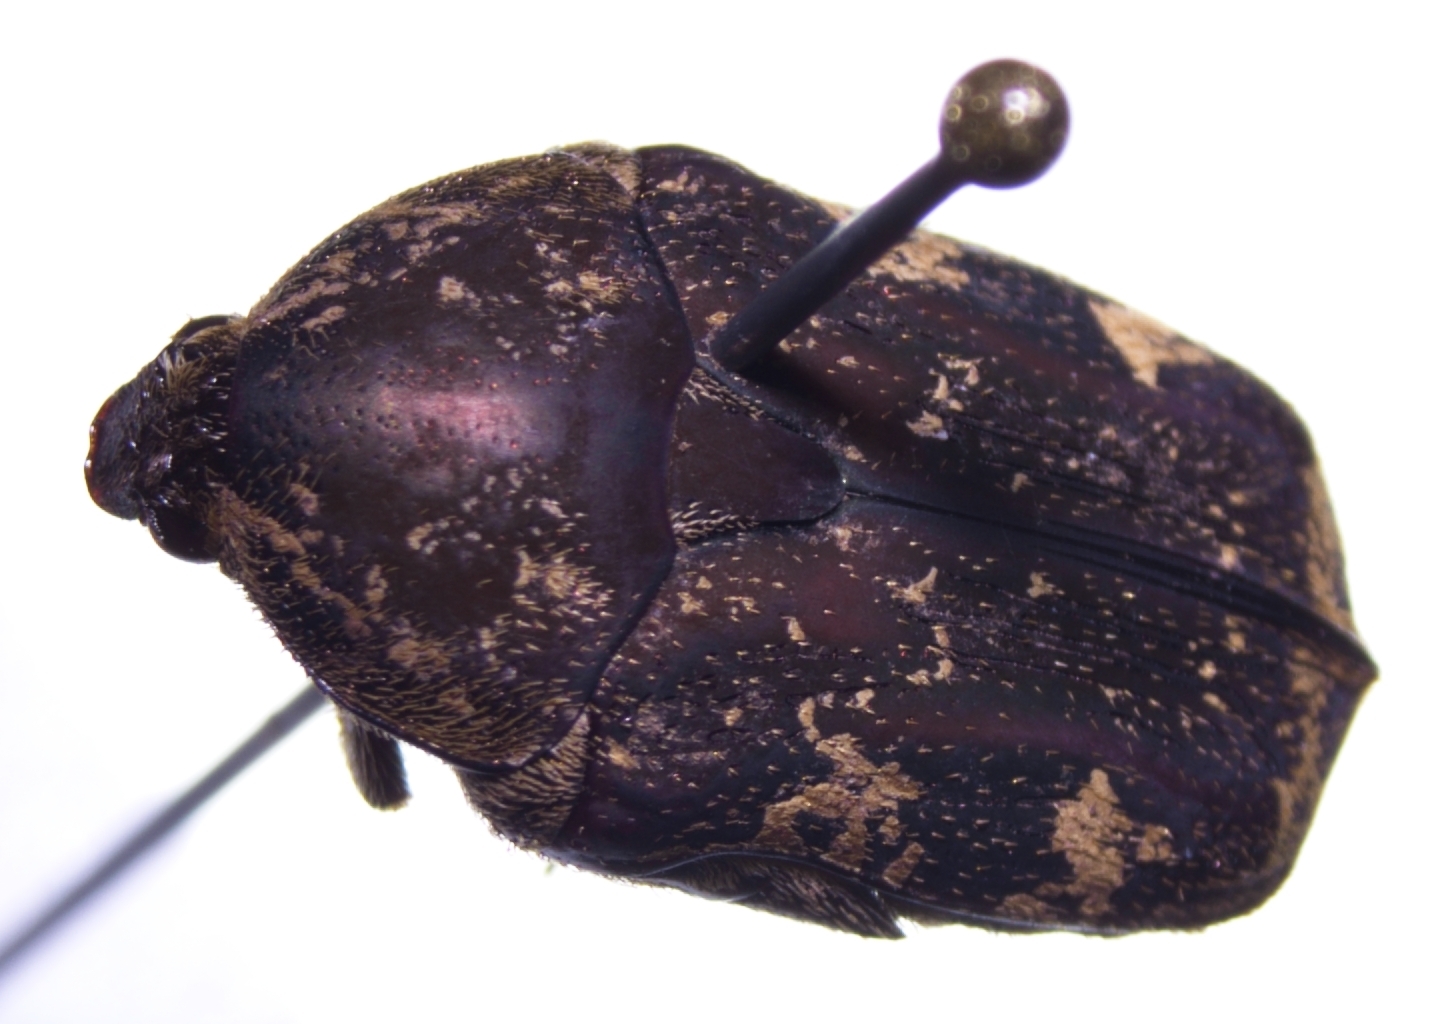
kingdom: Animalia
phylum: Arthropoda
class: Insecta
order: Coleoptera
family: Scarabaeidae
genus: Protaetia
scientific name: Protaetia fusca
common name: Mango flower beetle
